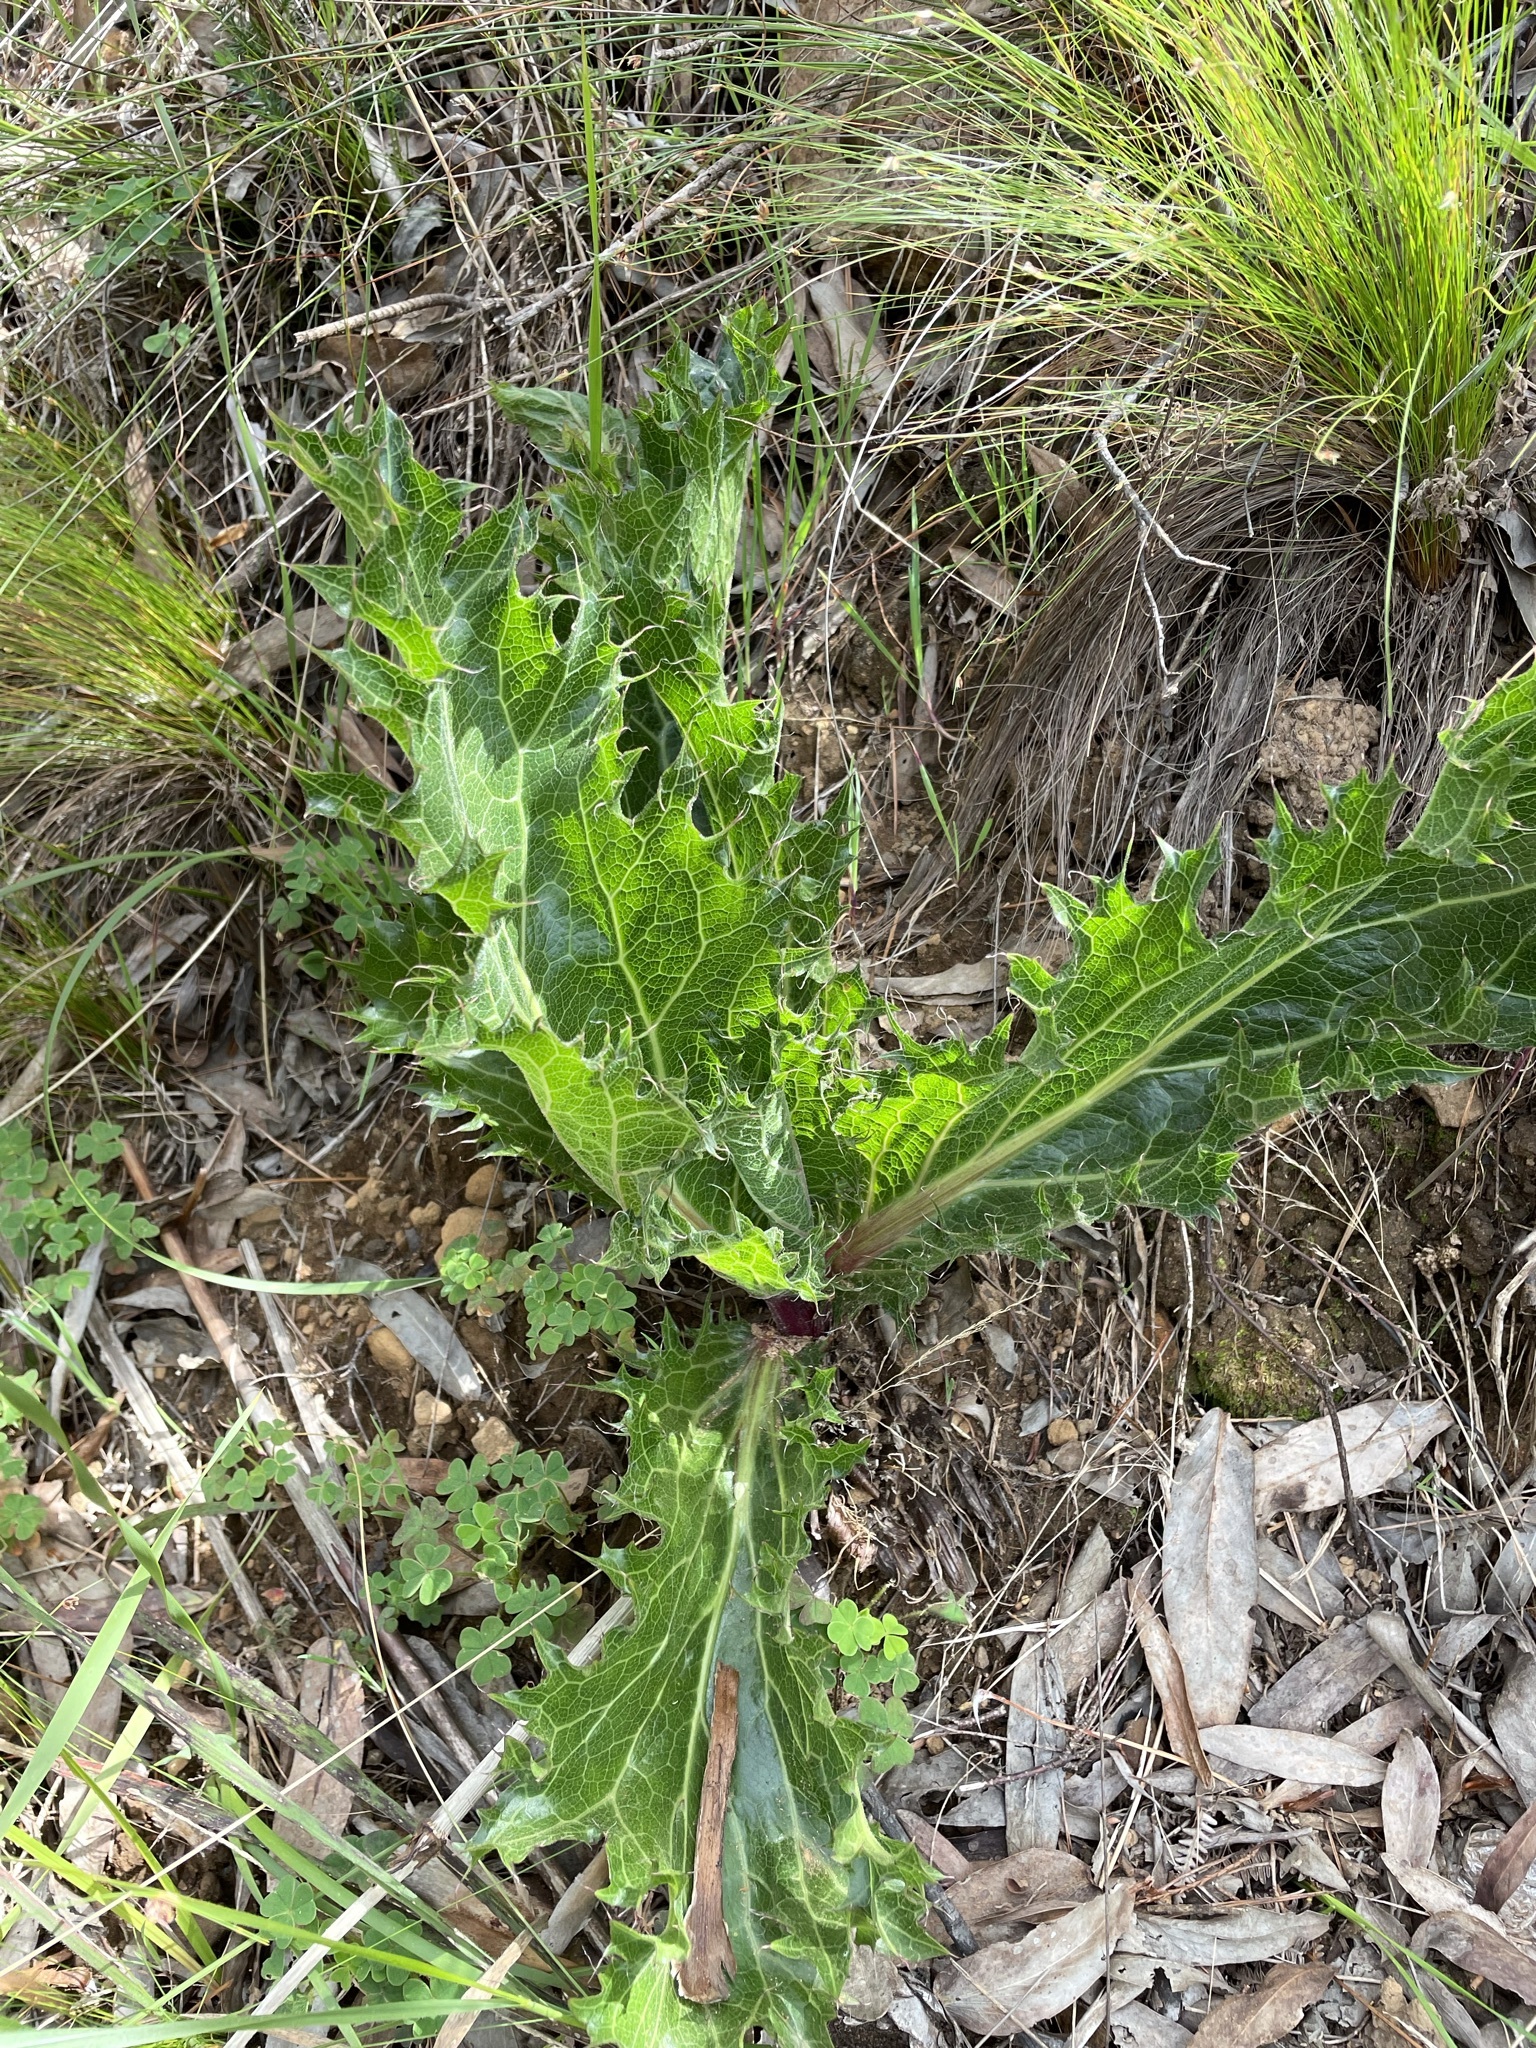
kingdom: Plantae
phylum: Tracheophyta
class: Magnoliopsida
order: Apiales
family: Apiaceae
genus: Lichtensteinia
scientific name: Lichtensteinia lacera
